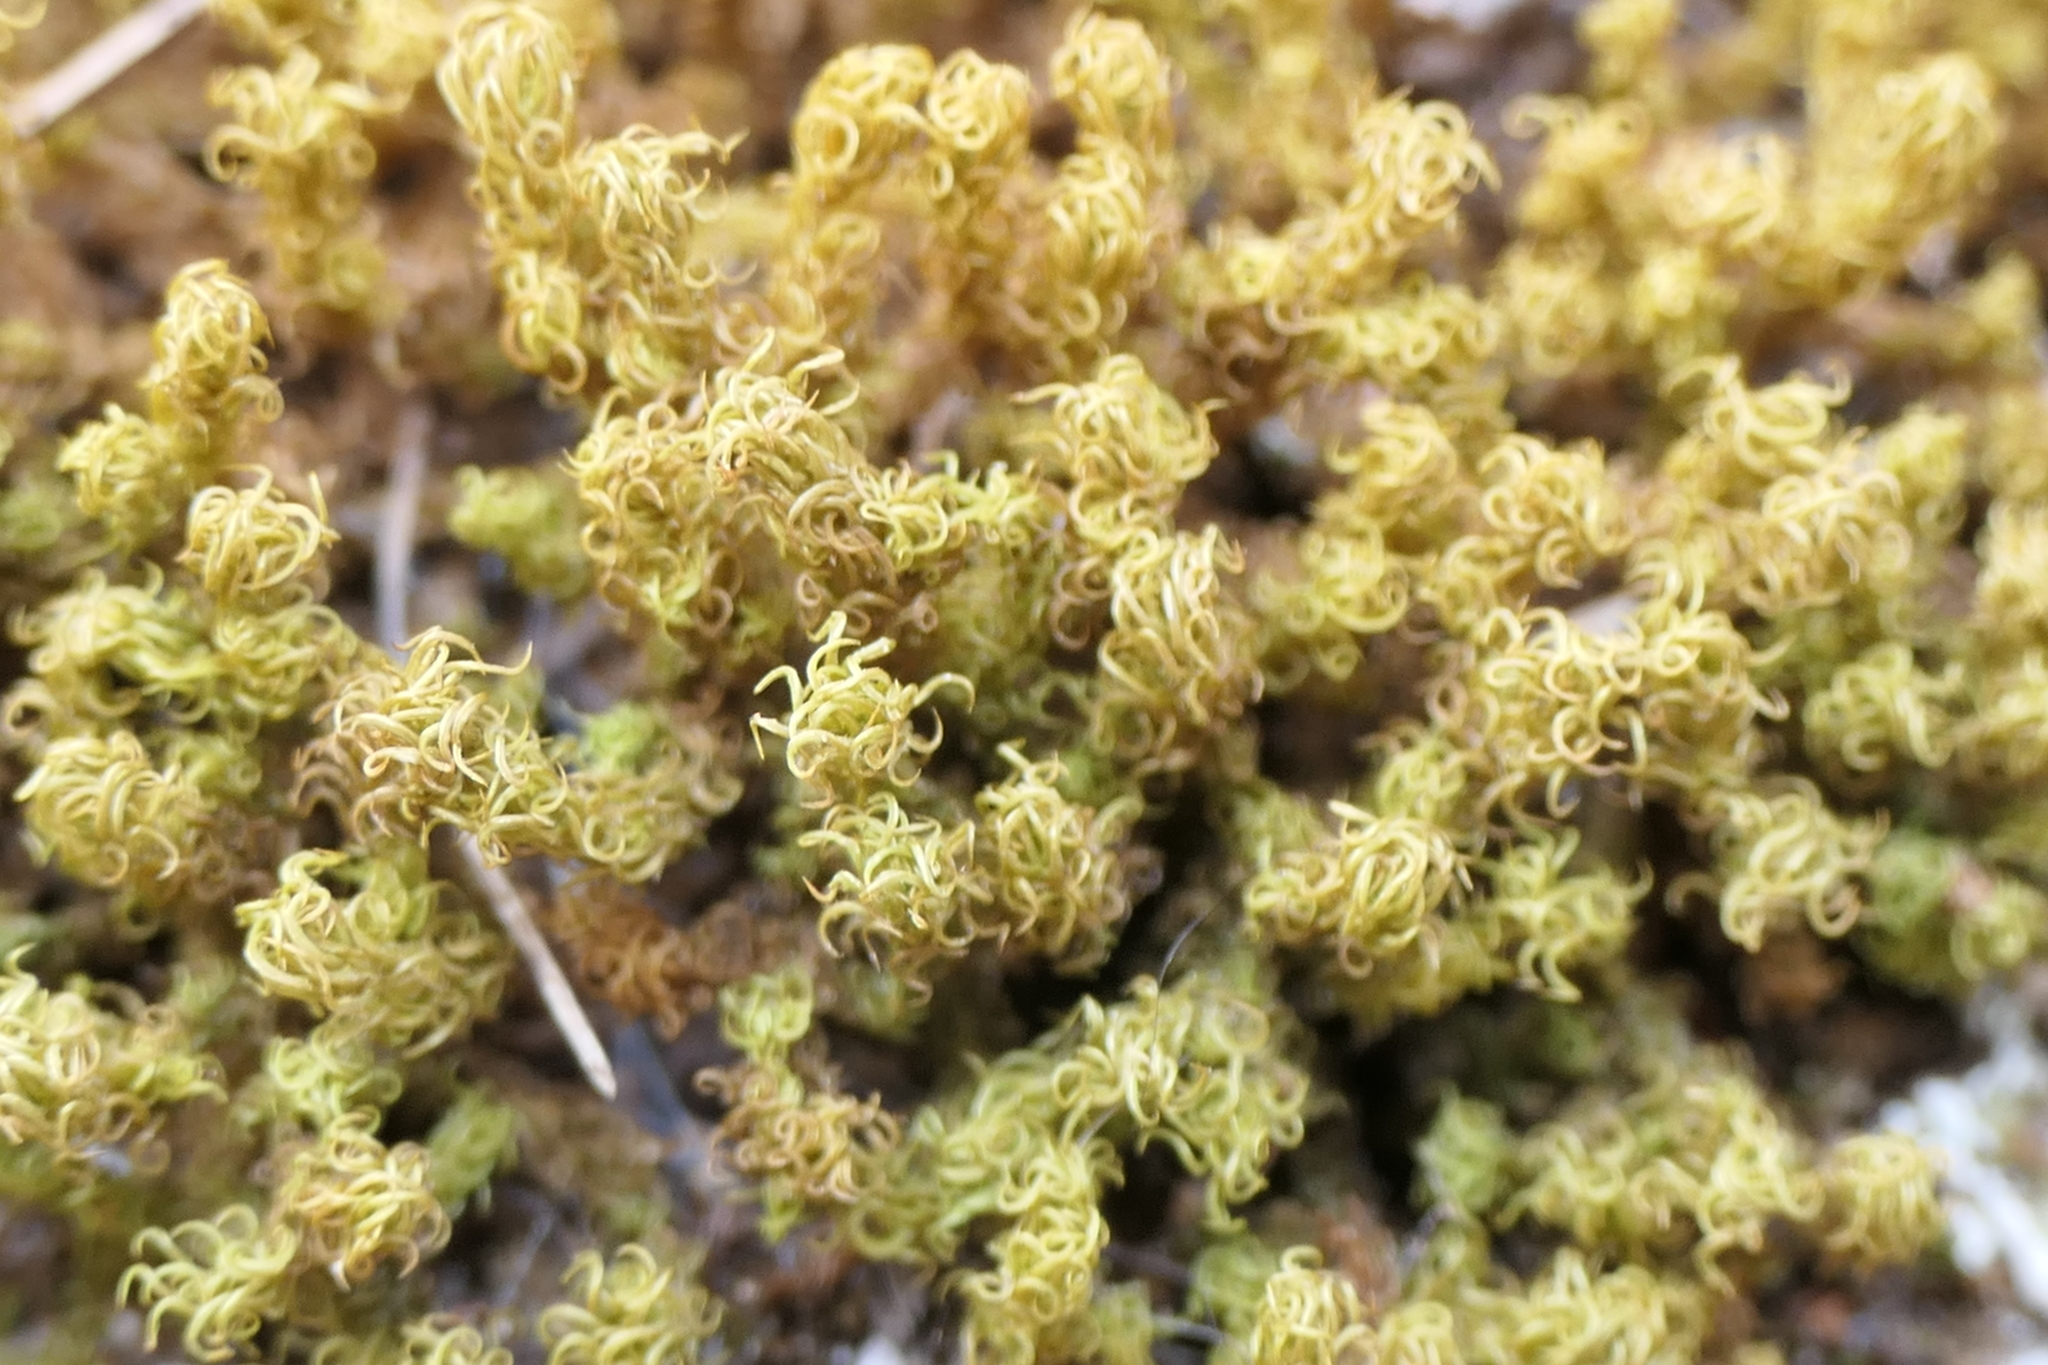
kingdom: Plantae
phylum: Bryophyta
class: Bryopsida
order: Pottiales
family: Pottiaceae
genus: Pleurochaete
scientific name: Pleurochaete squarrosa
